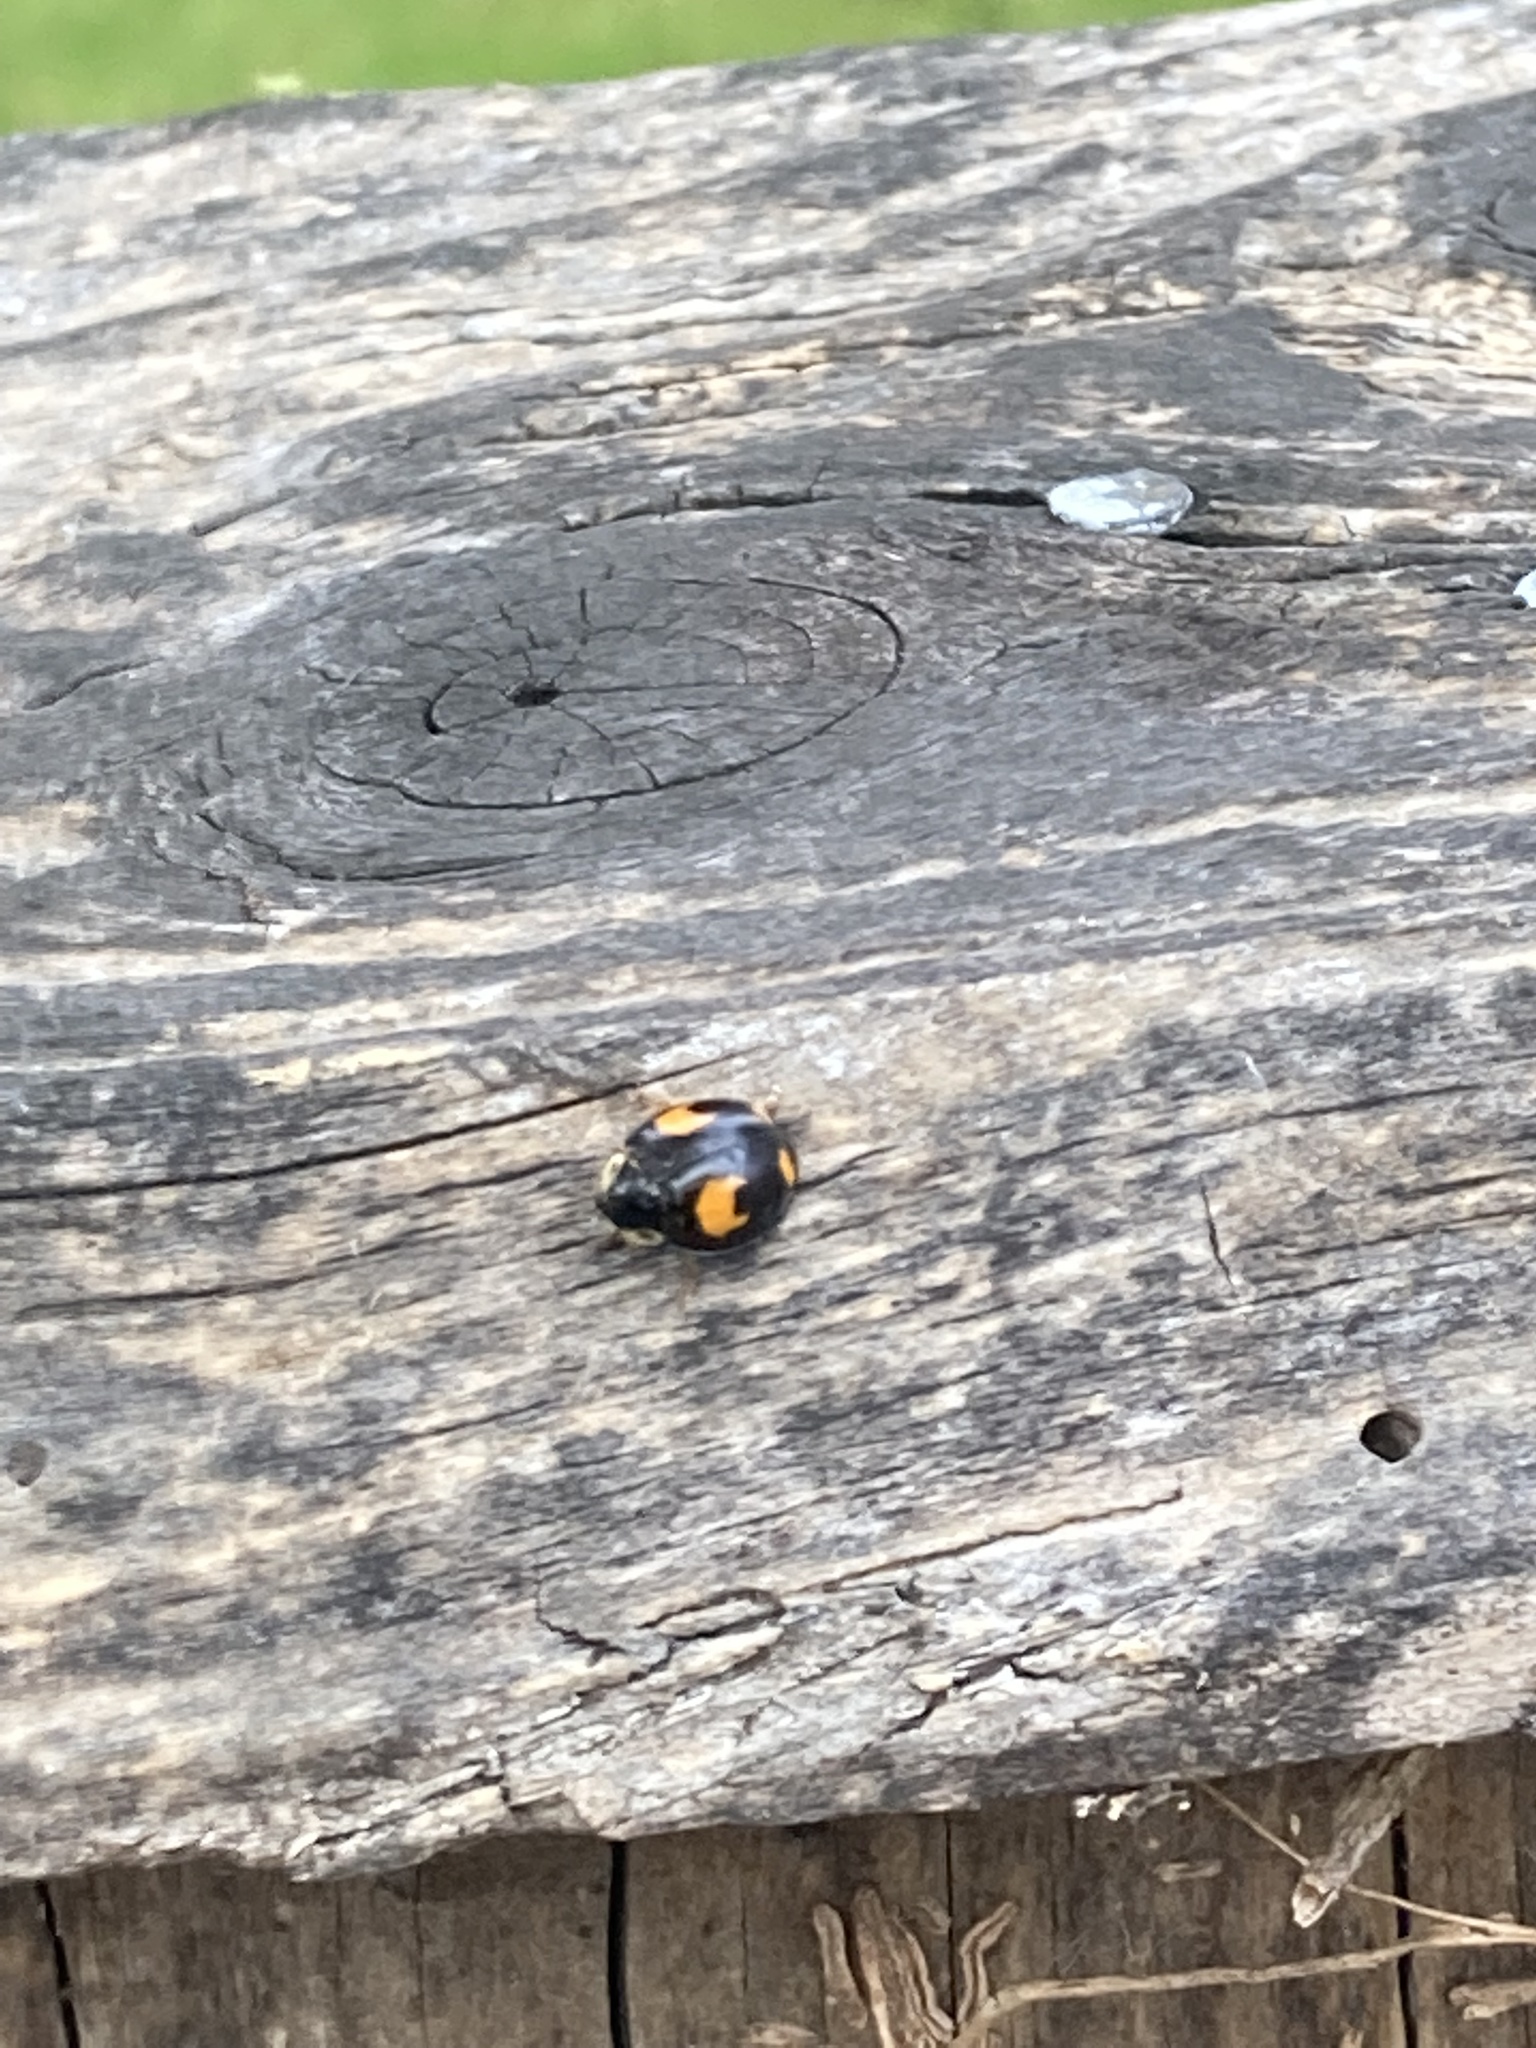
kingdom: Animalia
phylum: Arthropoda
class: Insecta
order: Coleoptera
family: Coccinellidae
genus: Harmonia
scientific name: Harmonia axyridis
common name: Harlequin ladybird
